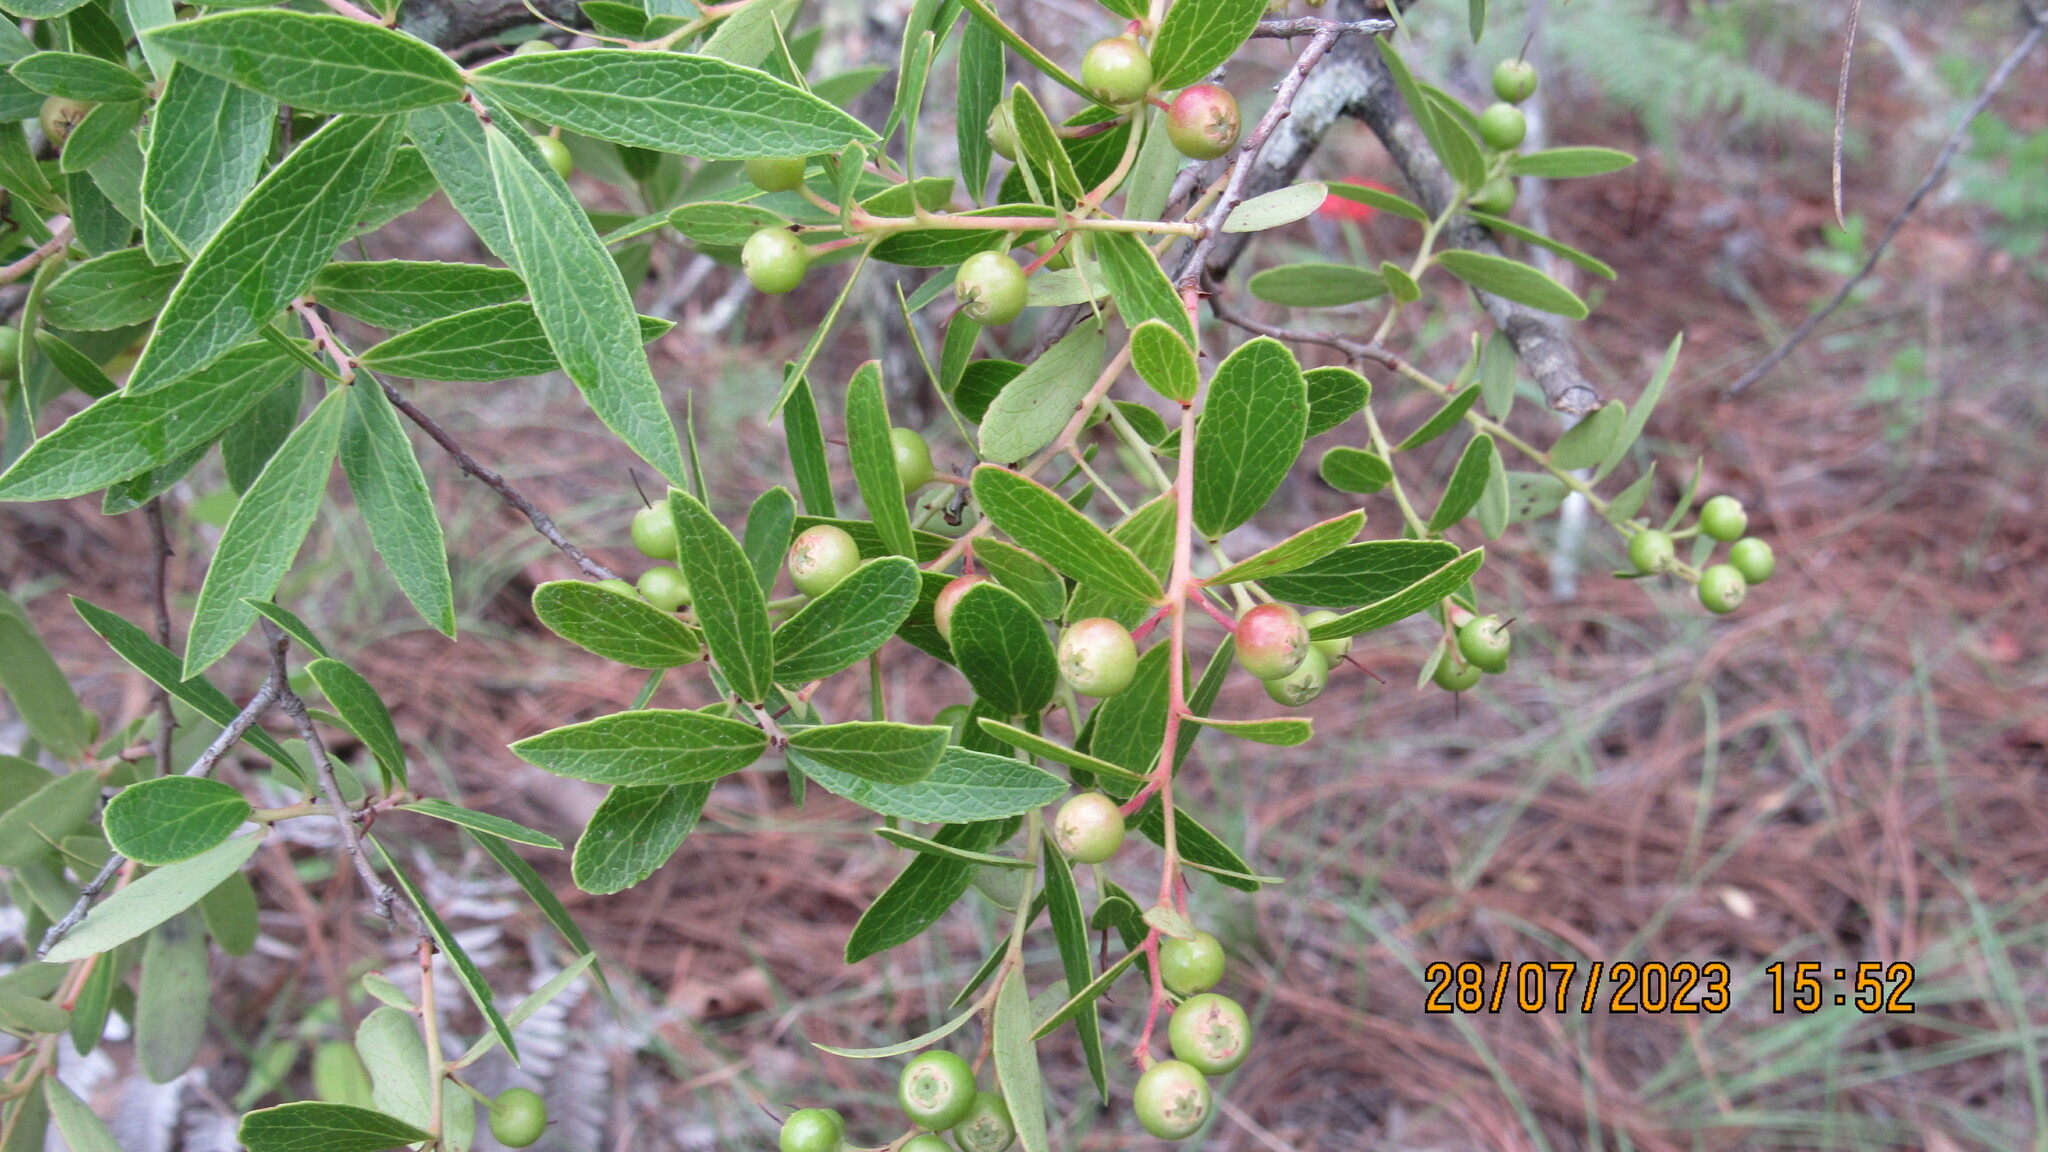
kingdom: Plantae
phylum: Tracheophyta
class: Magnoliopsida
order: Ericales
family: Ericaceae
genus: Vaccinium
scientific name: Vaccinium stenophyllum
